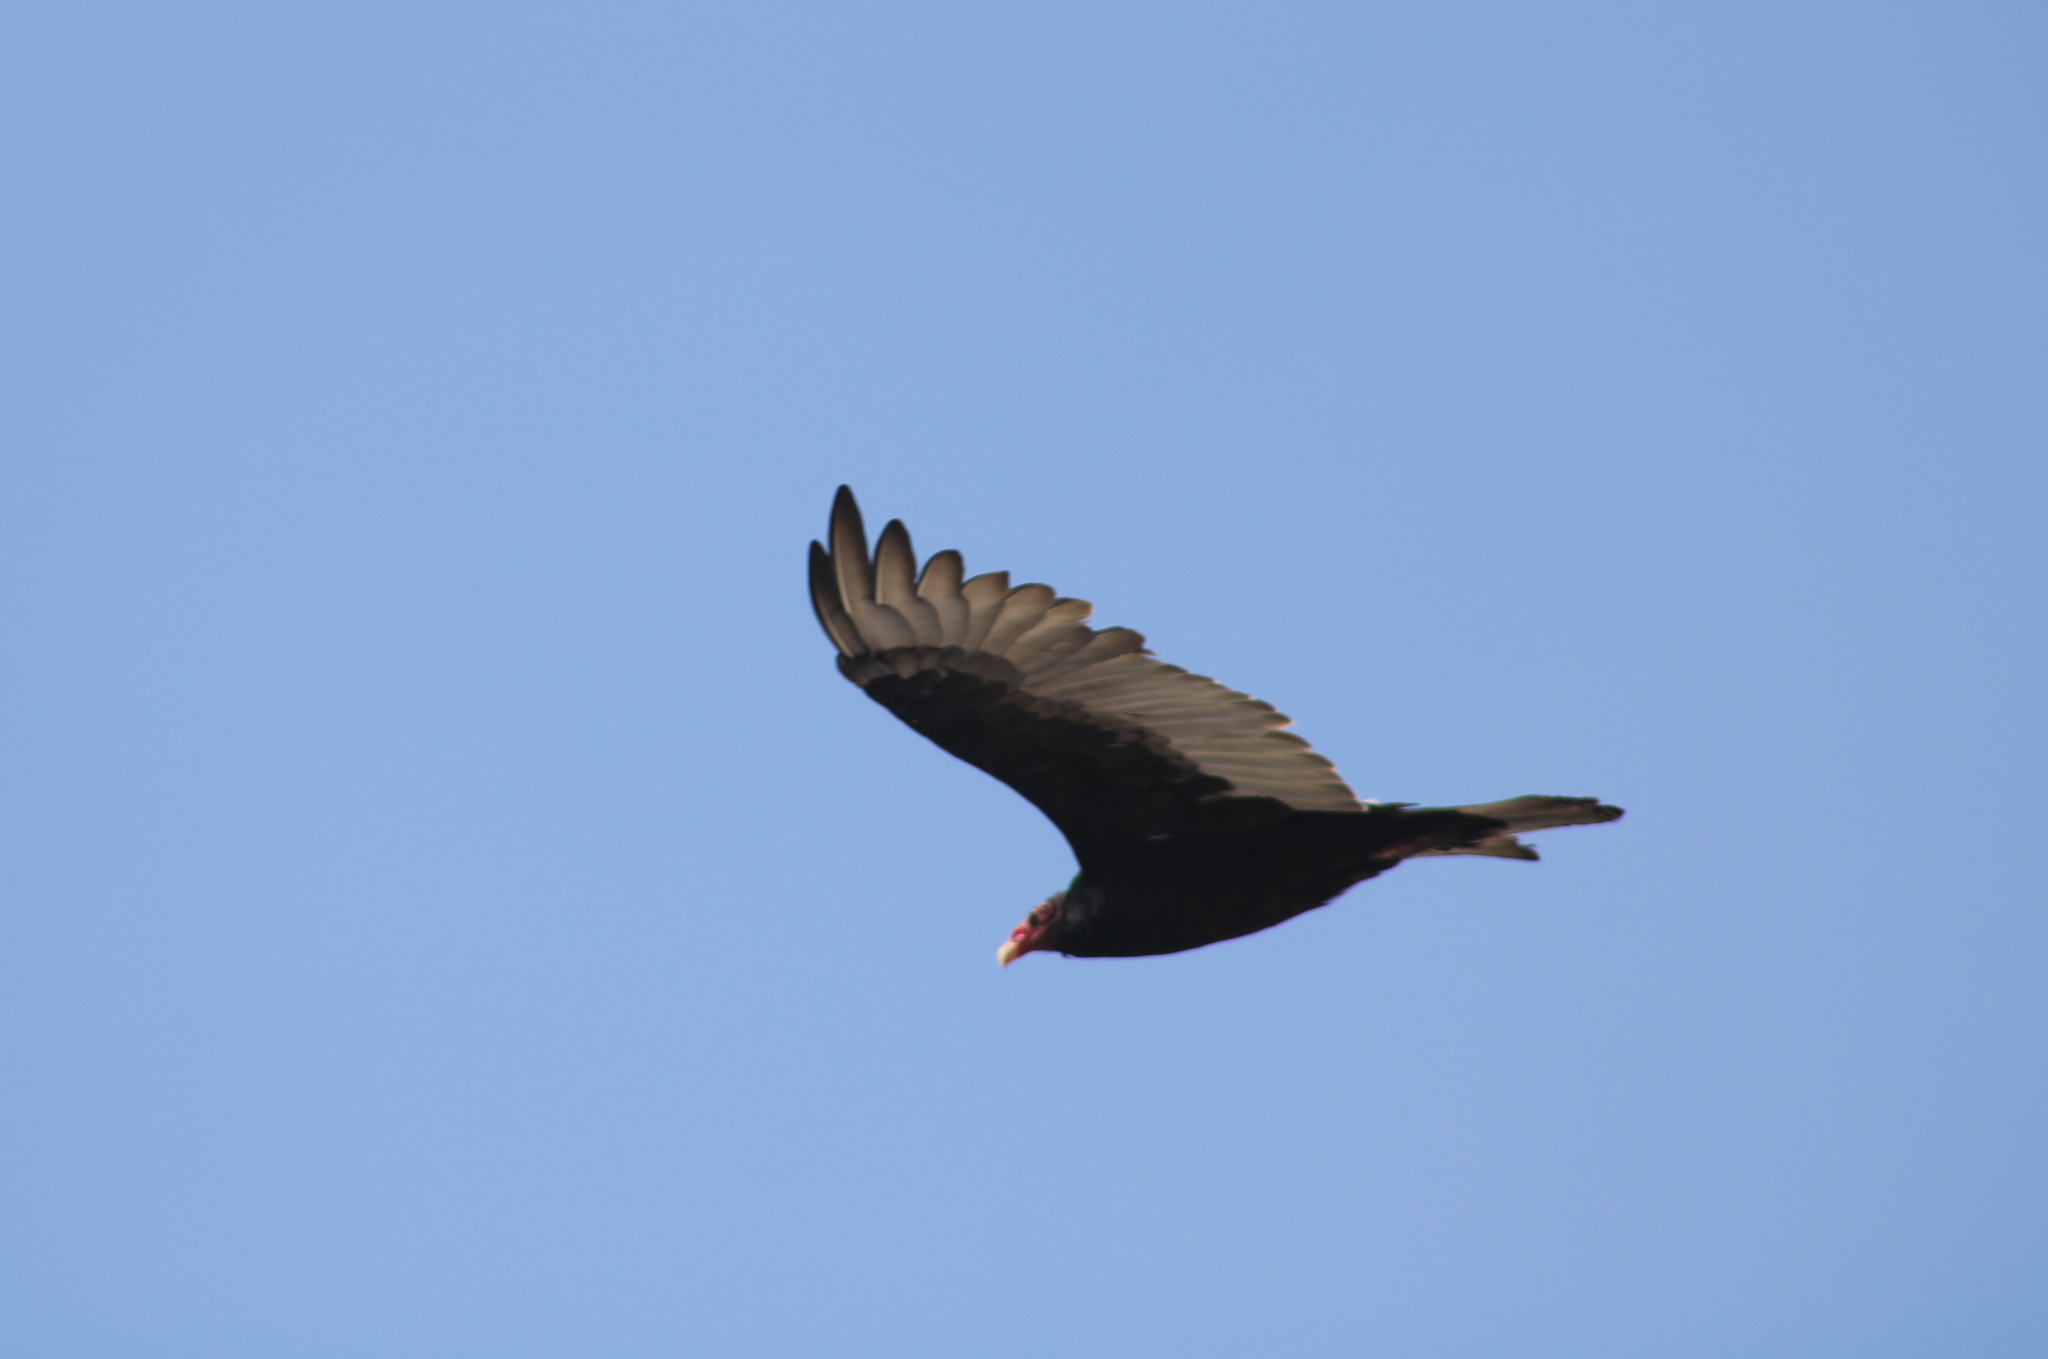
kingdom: Animalia
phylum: Chordata
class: Aves
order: Accipitriformes
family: Cathartidae
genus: Cathartes
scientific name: Cathartes aura
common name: Turkey vulture
